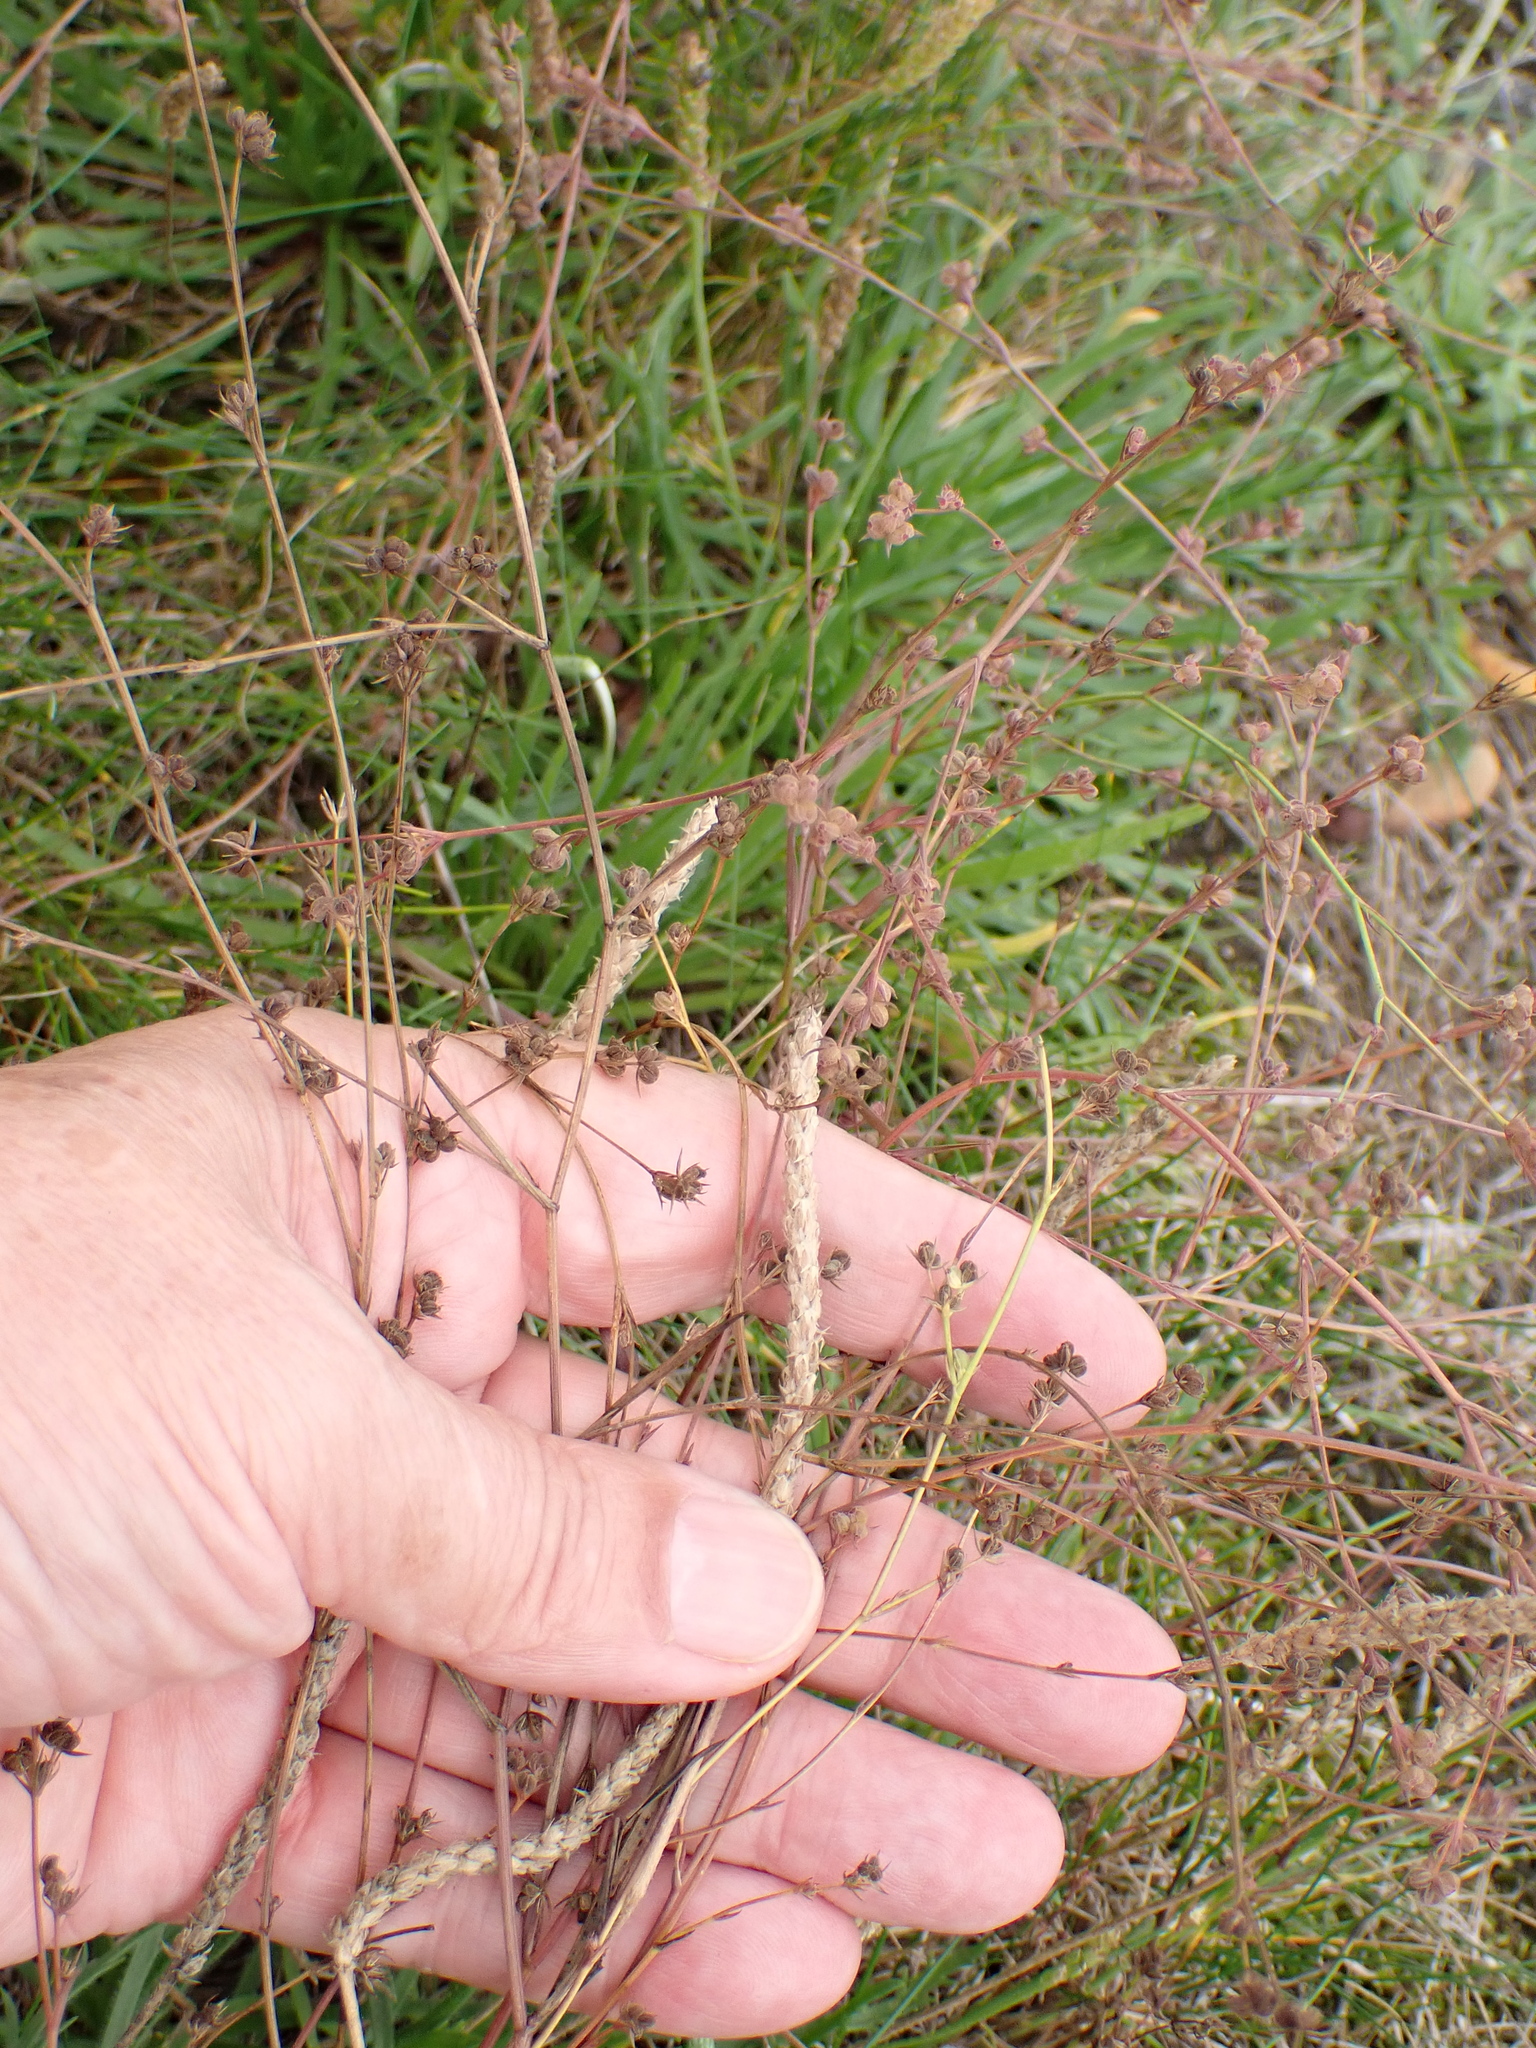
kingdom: Plantae
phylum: Tracheophyta
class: Magnoliopsida
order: Apiales
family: Apiaceae
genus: Bupleurum
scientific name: Bupleurum tenuissimum
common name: Slender hare's-ear
